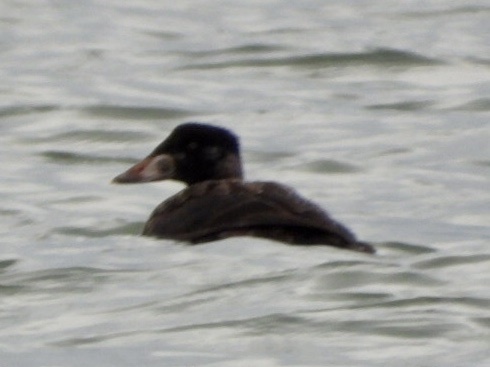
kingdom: Animalia
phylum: Chordata
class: Aves
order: Anseriformes
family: Anatidae
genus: Melanitta
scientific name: Melanitta perspicillata
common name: Surf scoter
